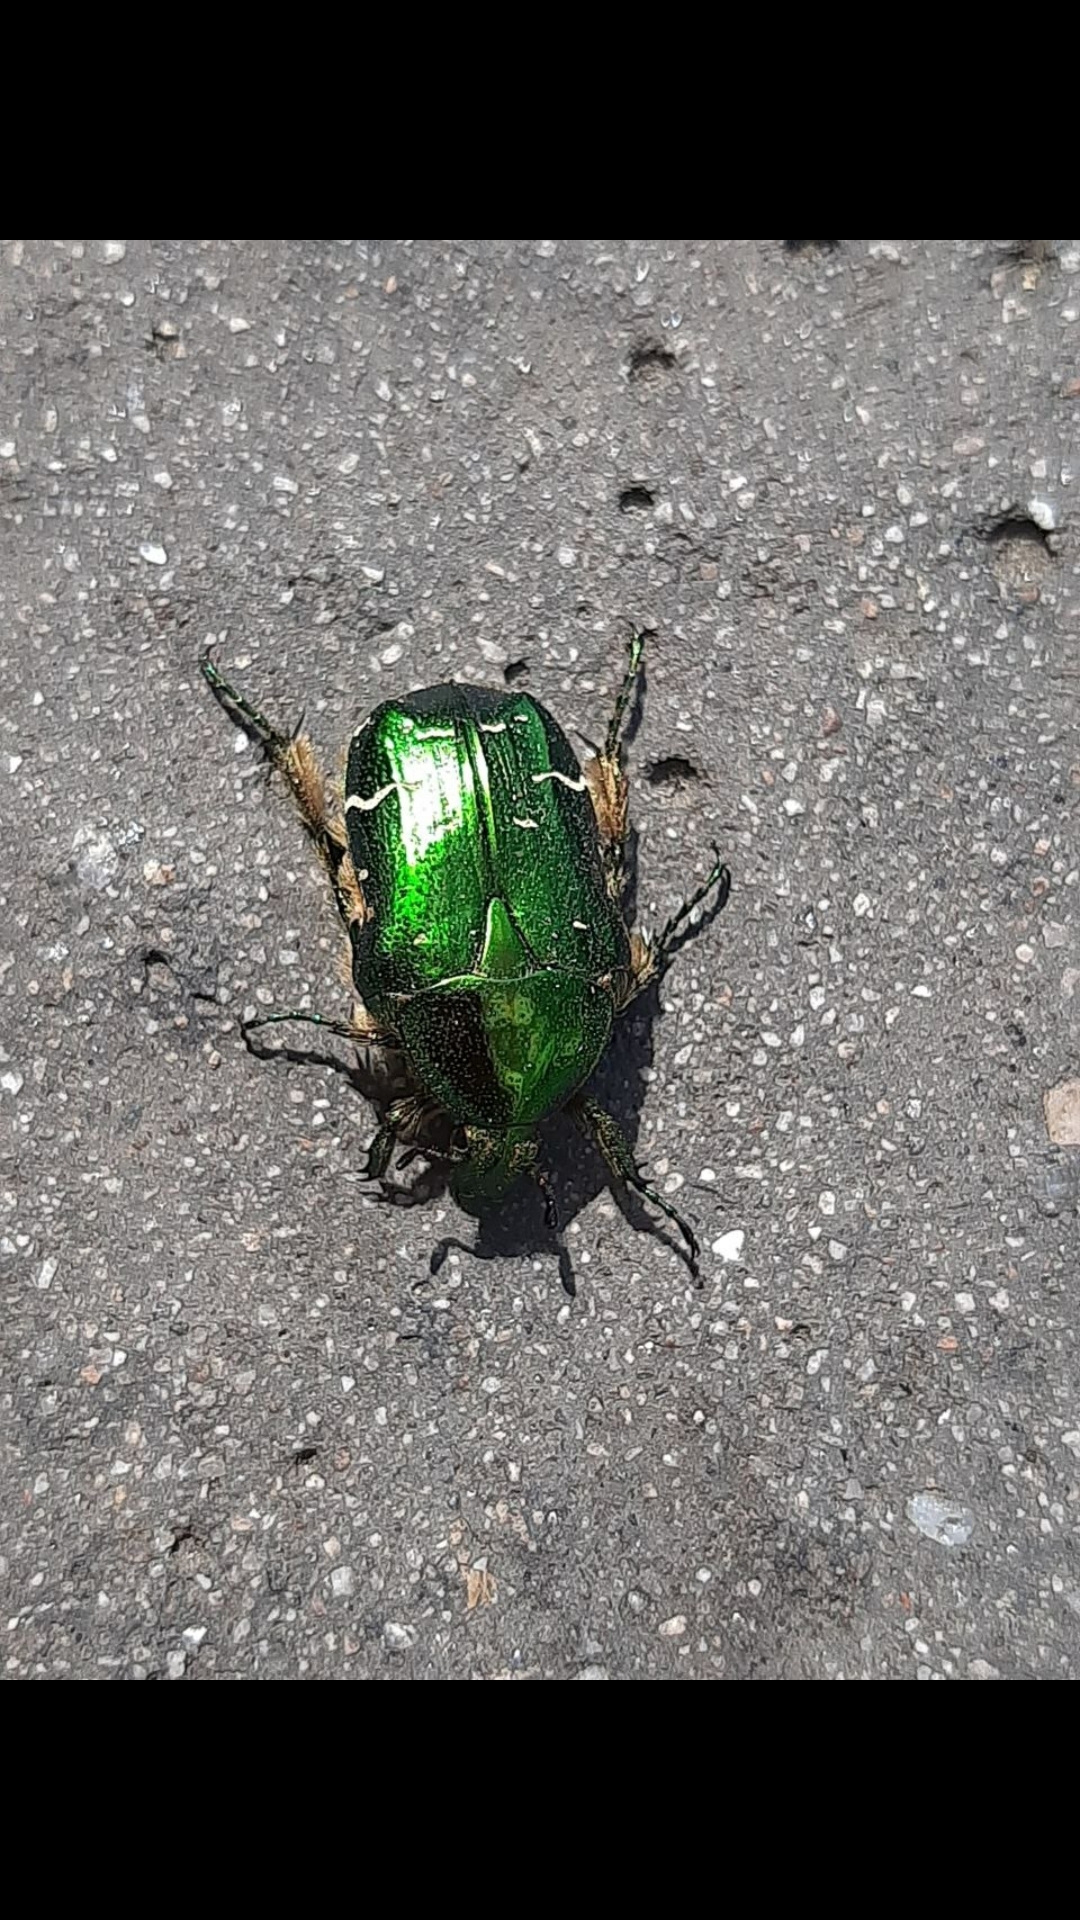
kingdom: Animalia
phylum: Arthropoda
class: Insecta
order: Coleoptera
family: Scarabaeidae
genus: Cetonia
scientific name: Cetonia aurata
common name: Rose chafer
